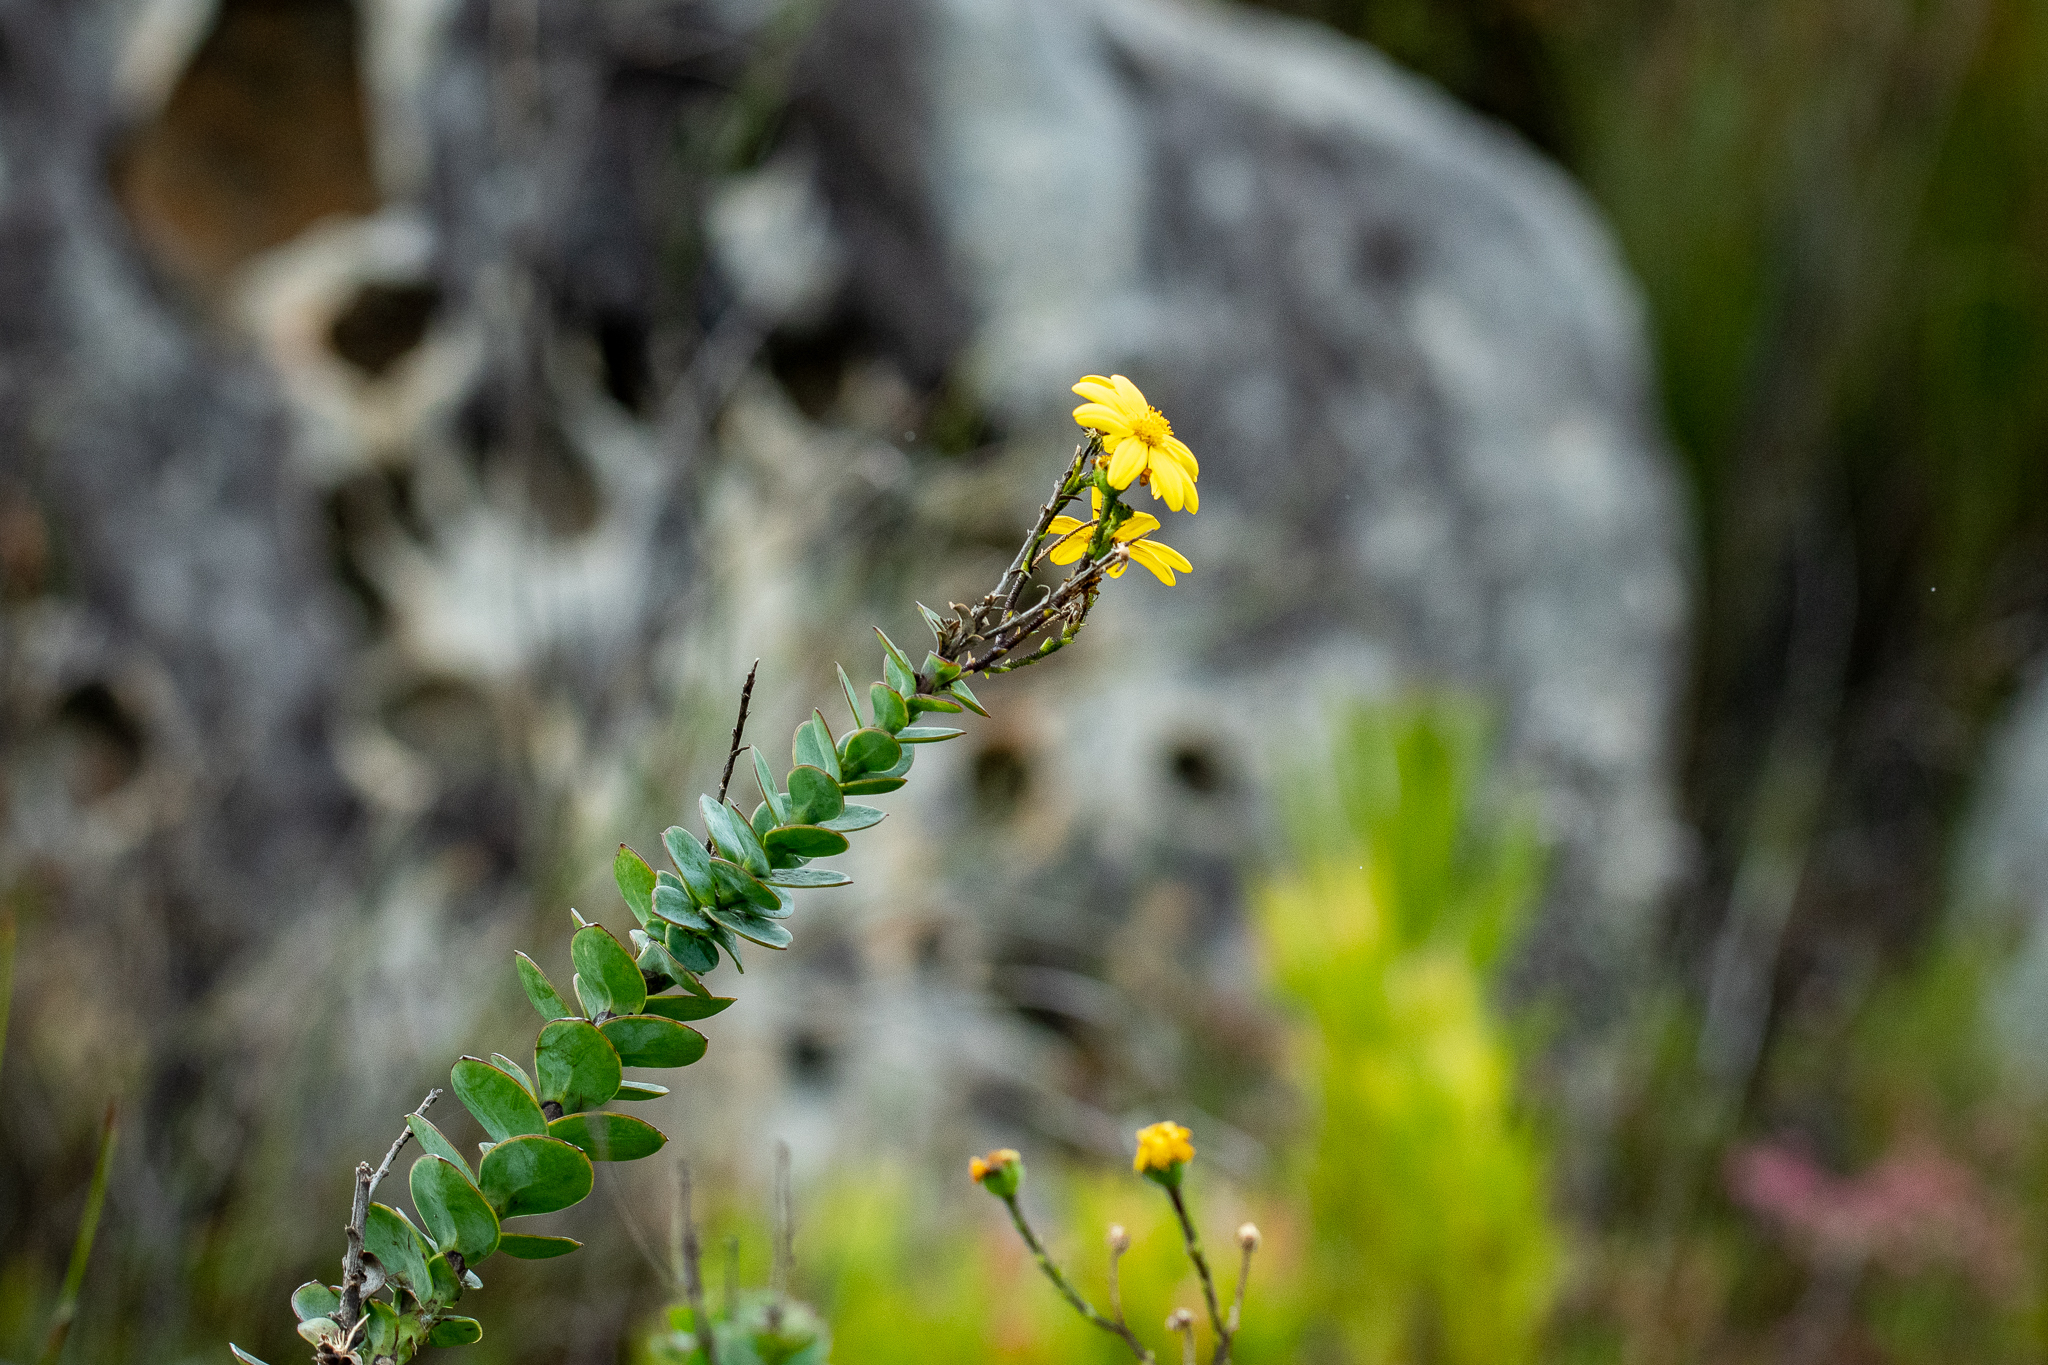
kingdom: Plantae
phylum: Tracheophyta
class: Magnoliopsida
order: Asterales
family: Asteraceae
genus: Osteospermum
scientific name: Osteospermum rotundifolium
